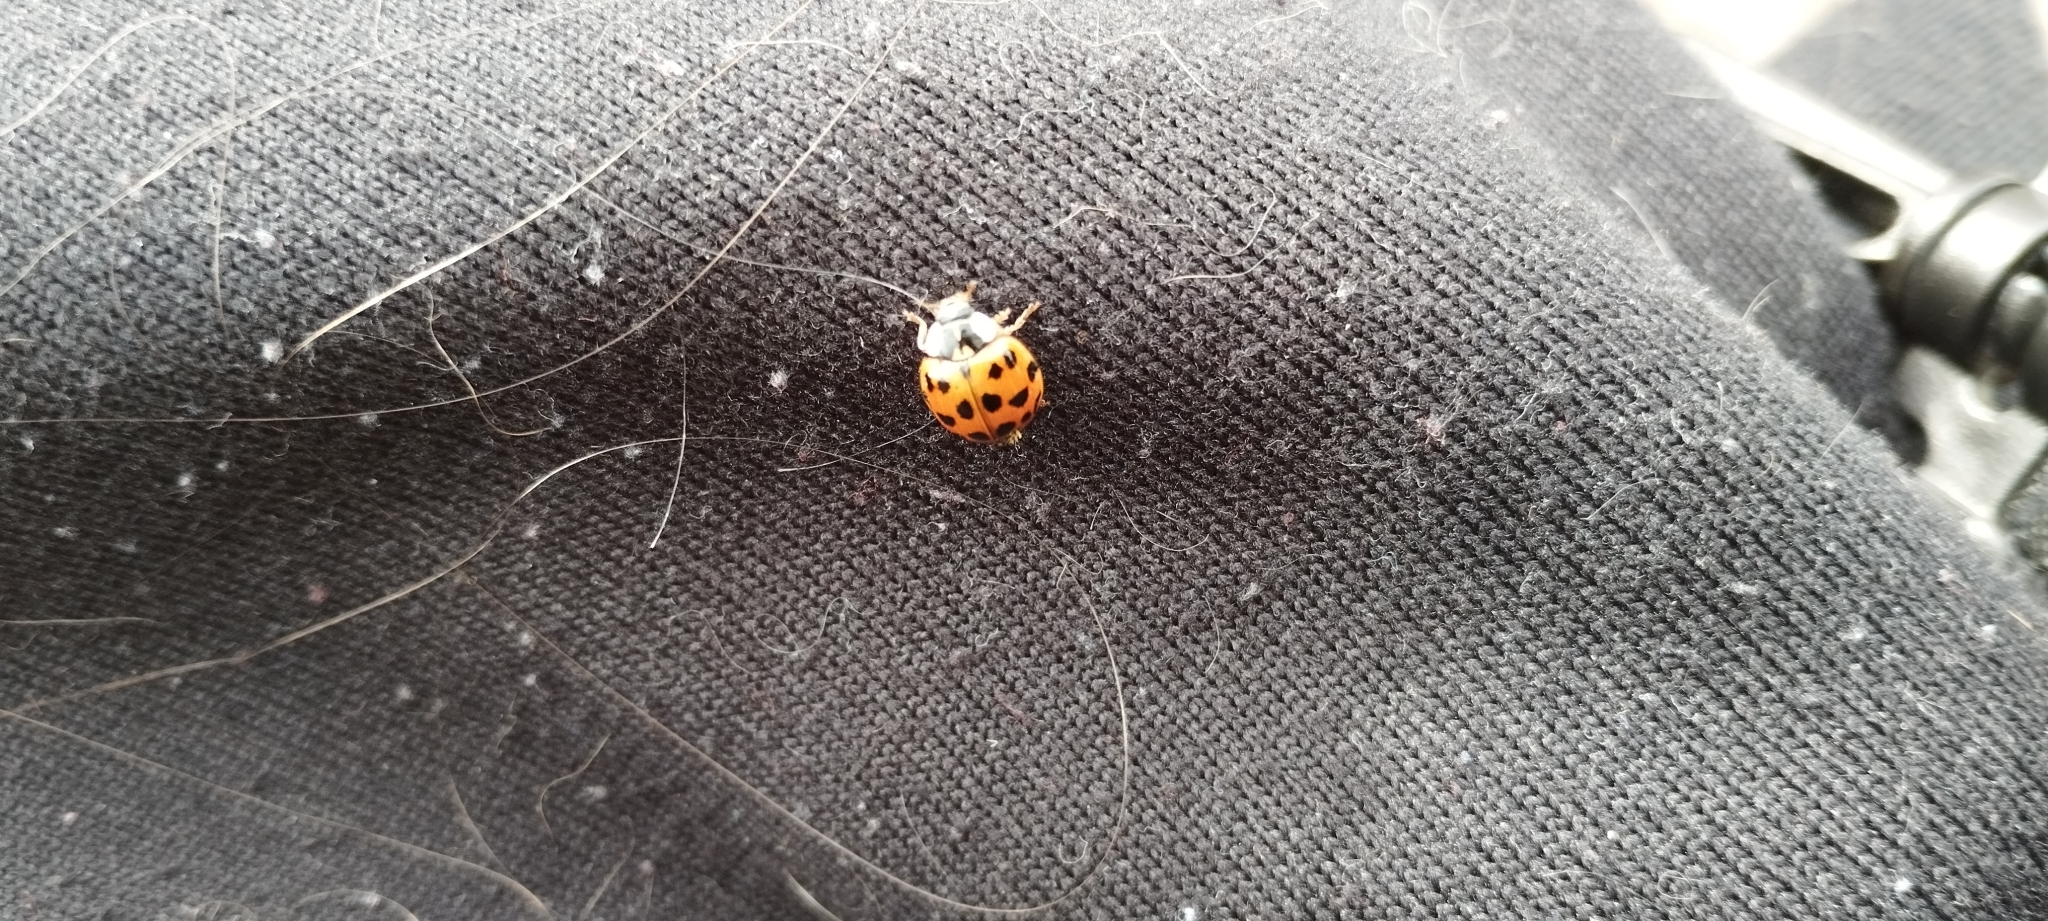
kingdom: Animalia
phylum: Arthropoda
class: Insecta
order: Coleoptera
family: Coccinellidae
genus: Harmonia
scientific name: Harmonia axyridis
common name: Harlequin ladybird
